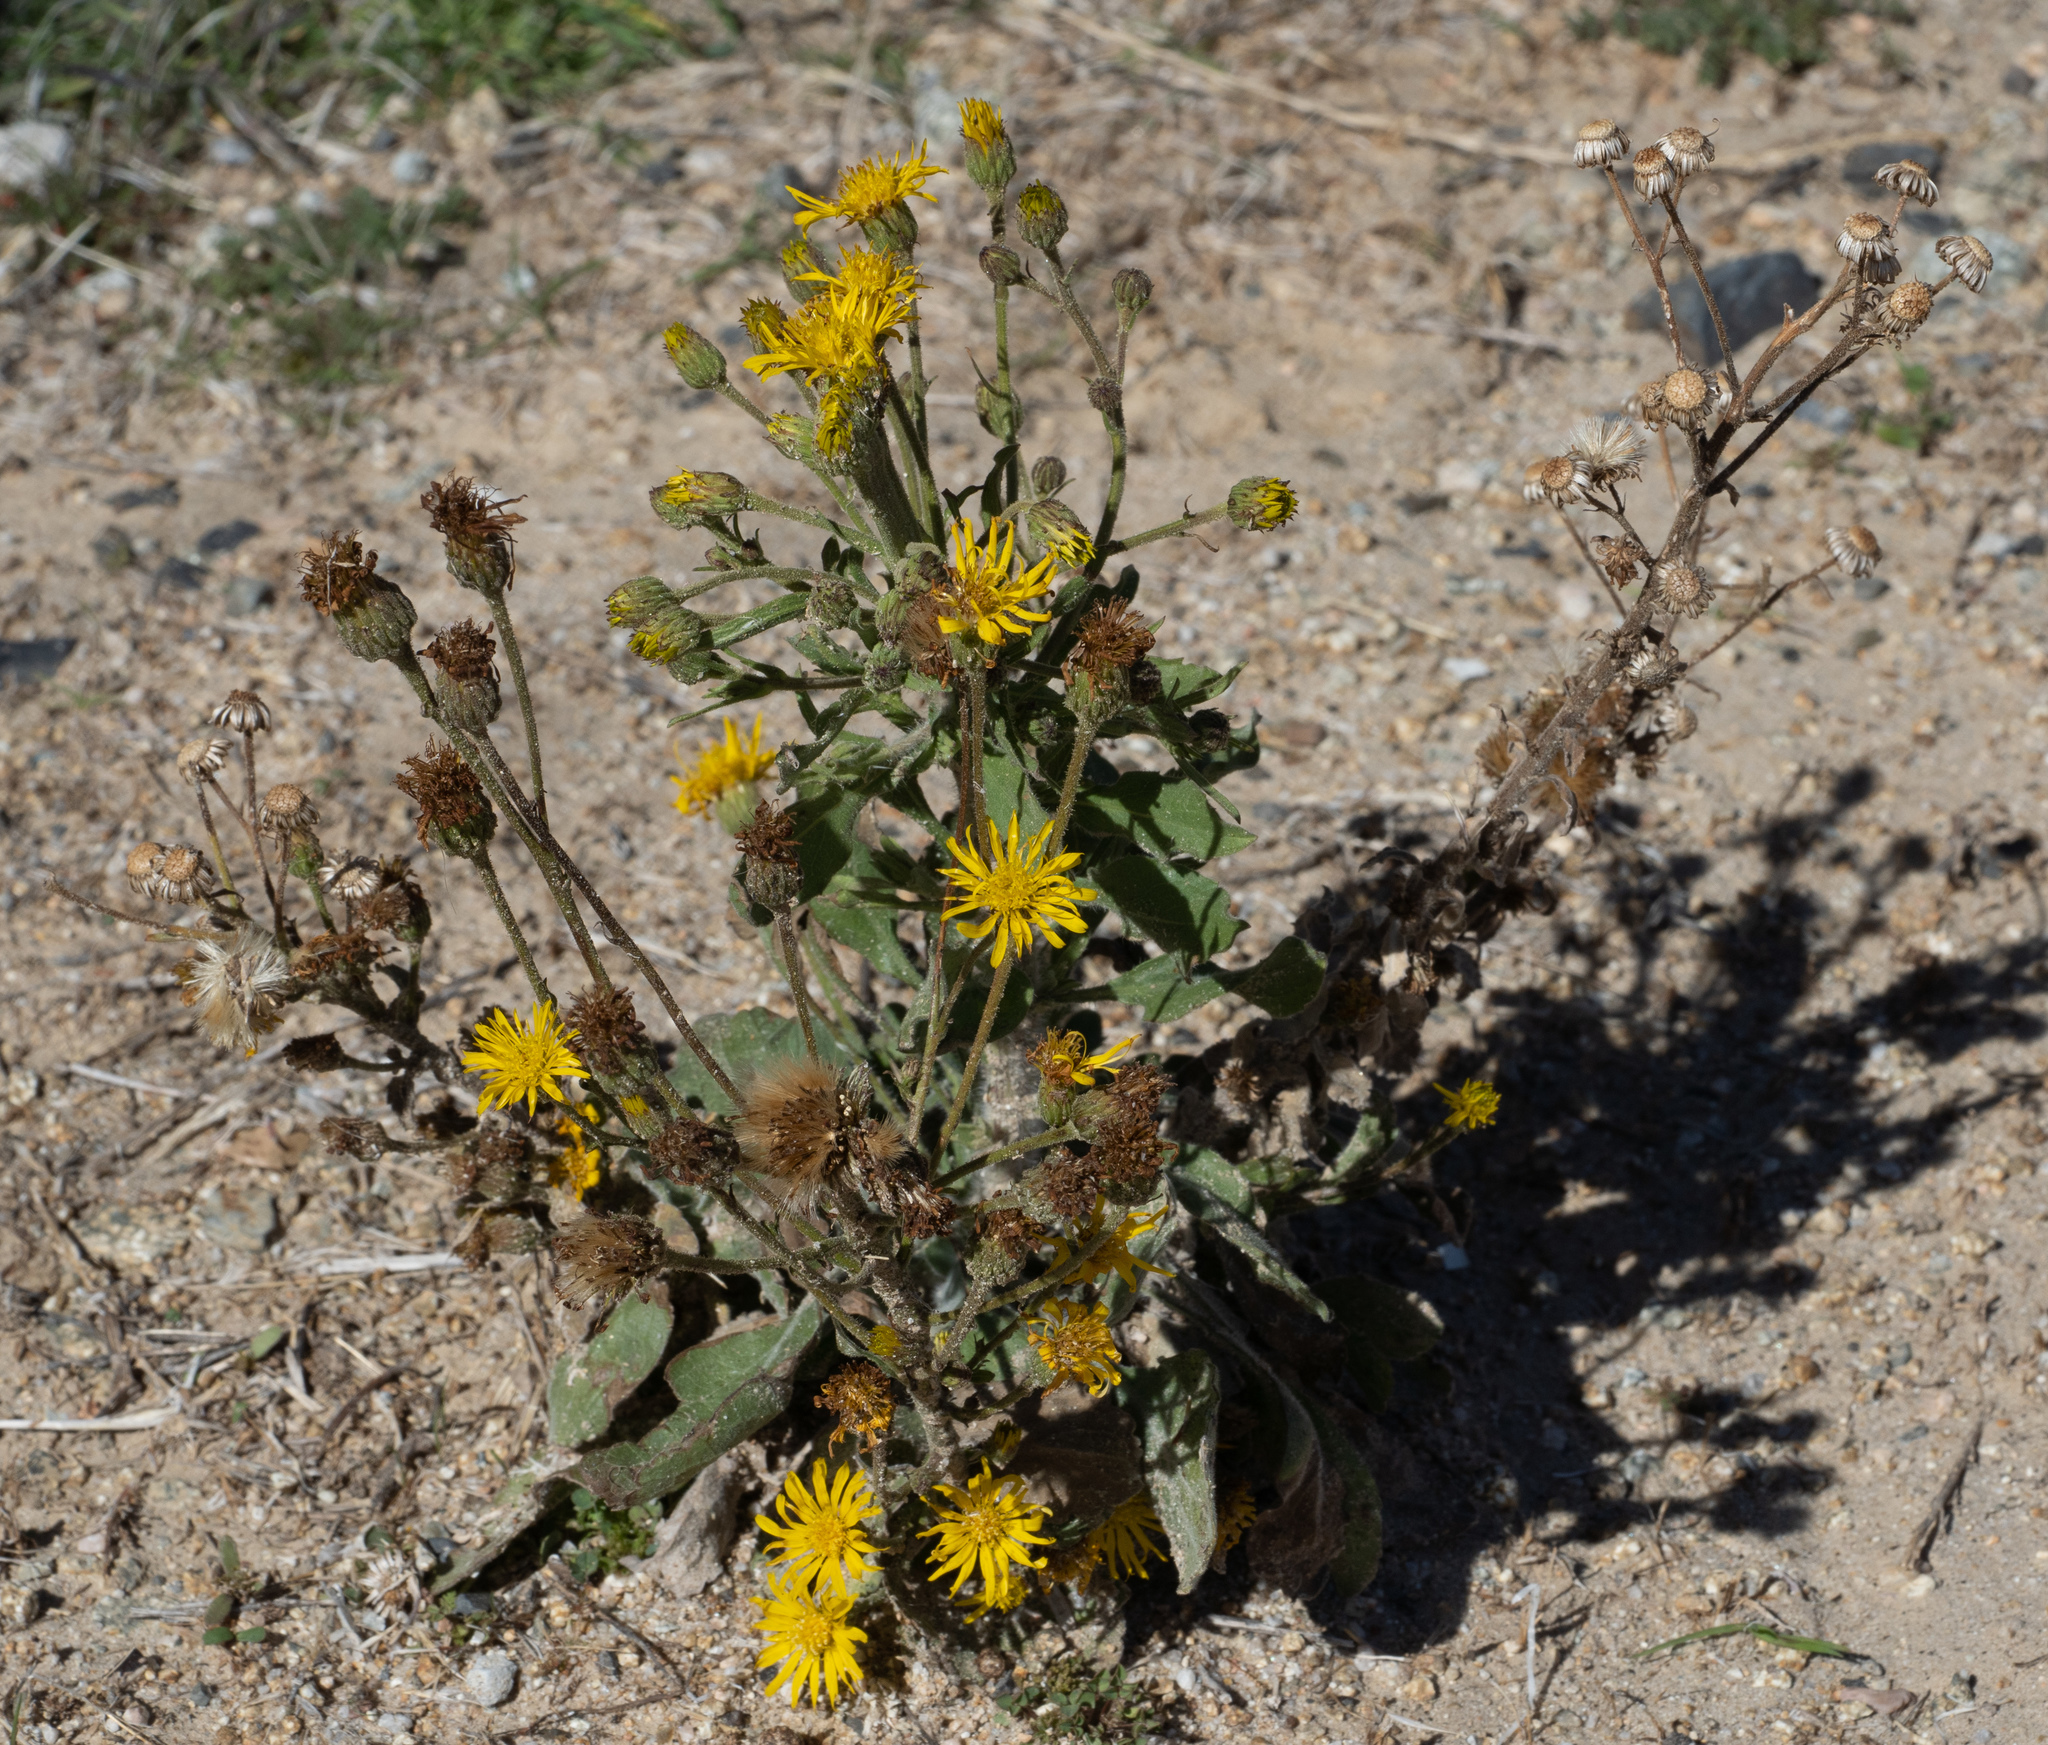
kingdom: Plantae
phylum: Tracheophyta
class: Magnoliopsida
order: Asterales
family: Asteraceae
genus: Heterotheca
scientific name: Heterotheca grandiflora
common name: Telegraphweed
